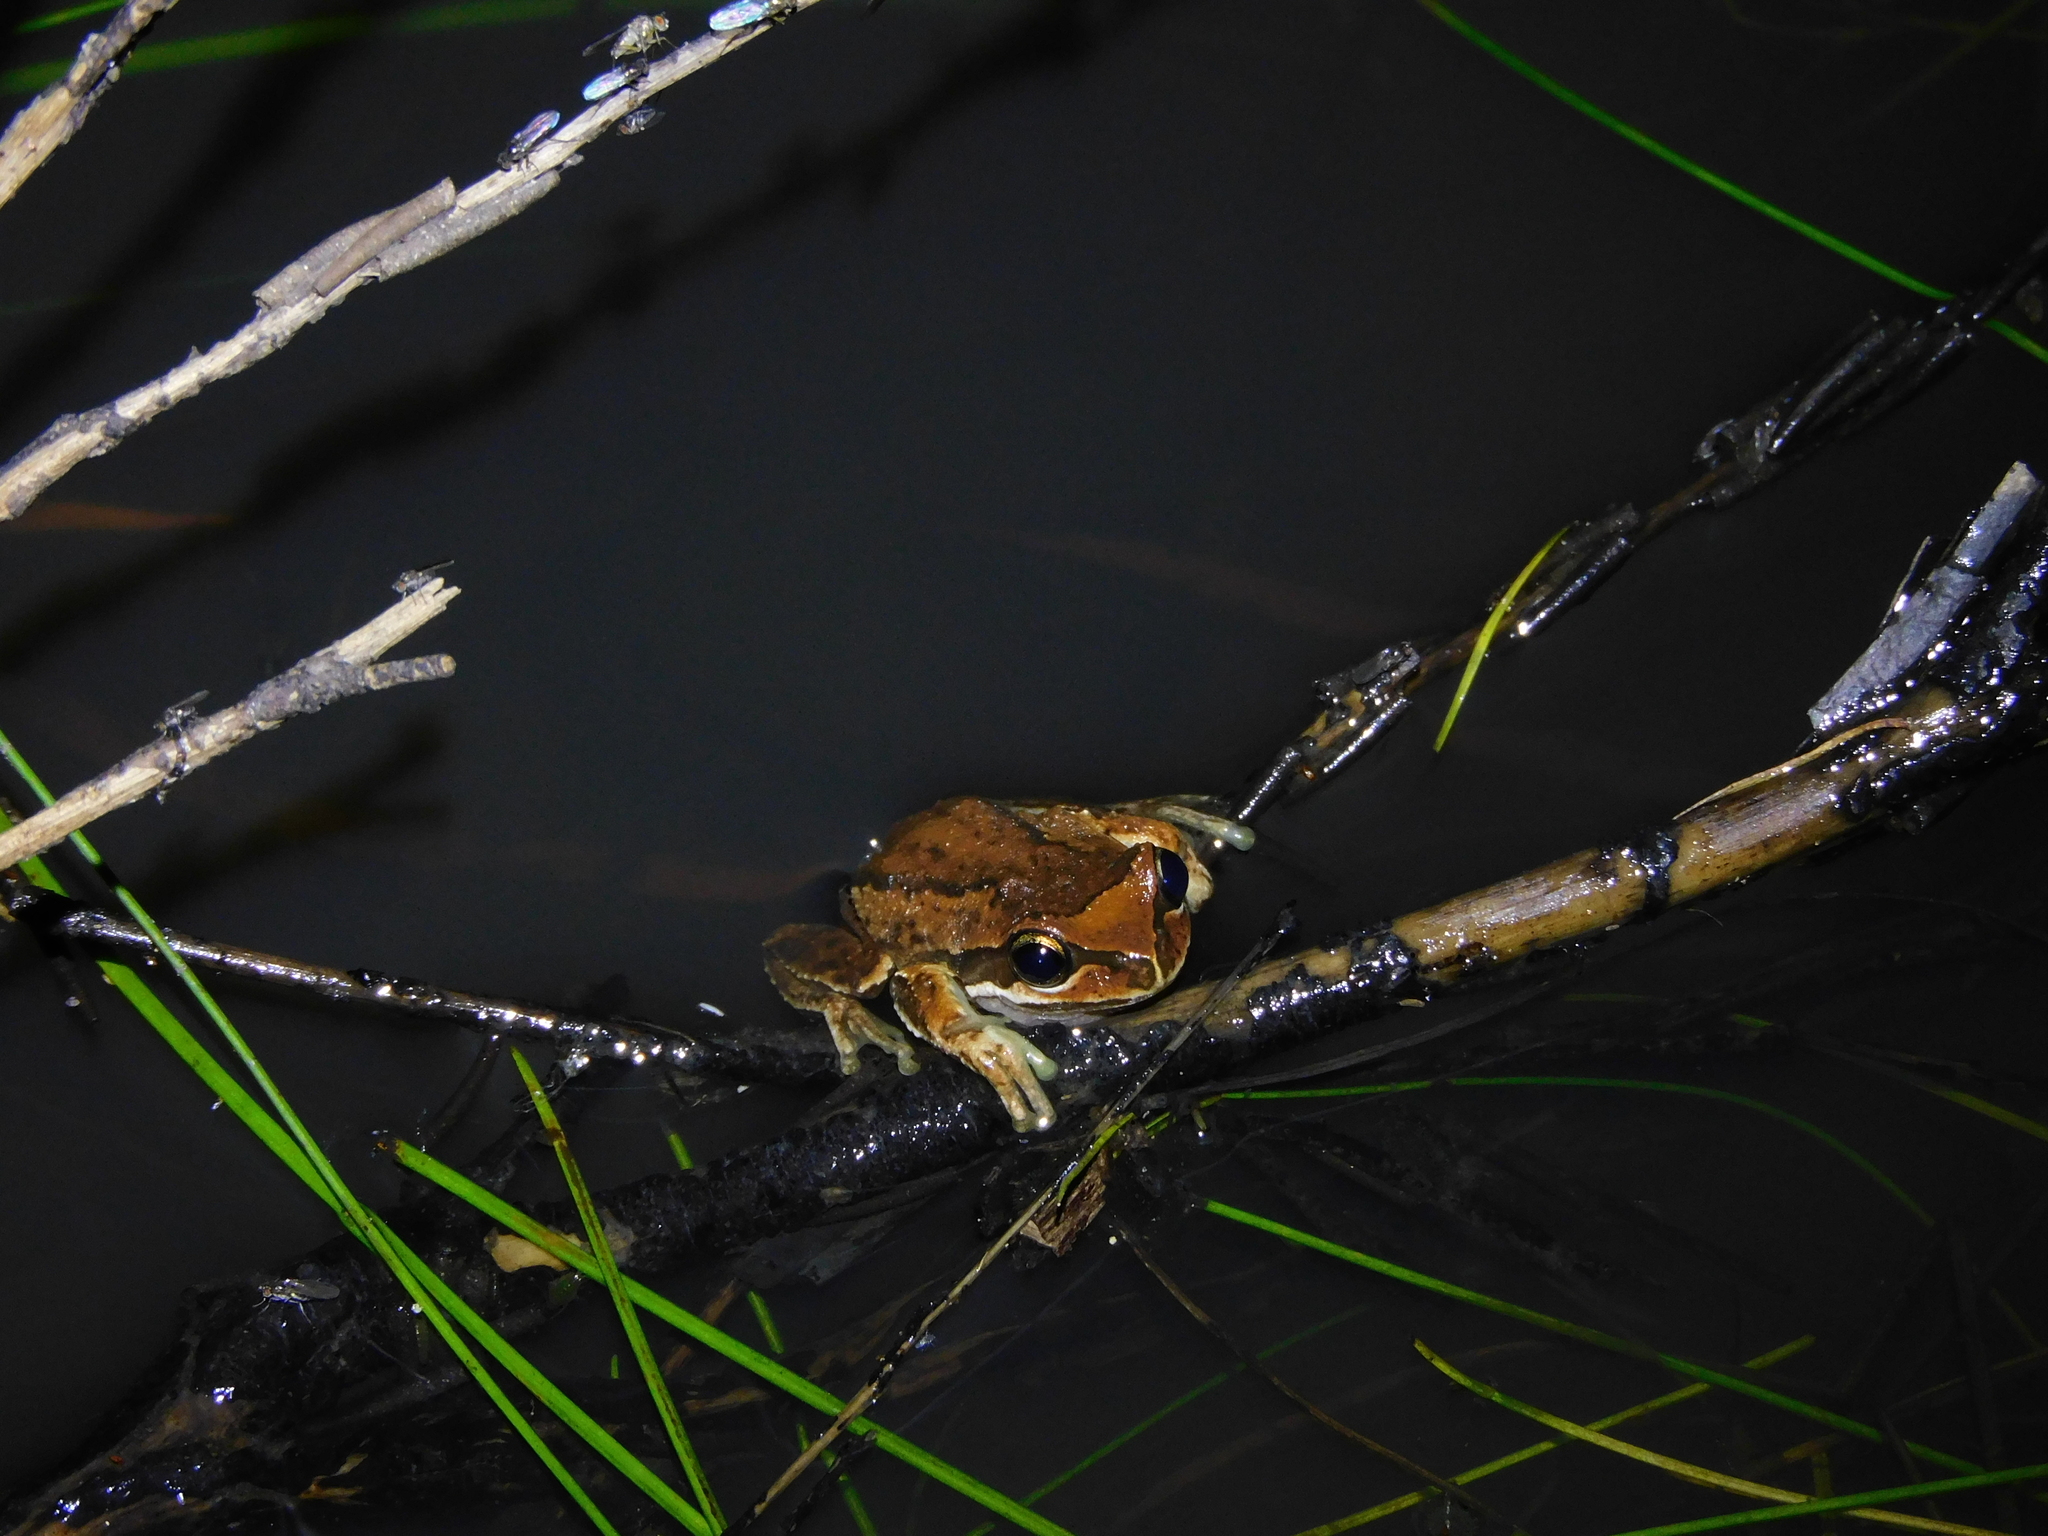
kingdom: Animalia
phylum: Chordata
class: Amphibia
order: Anura
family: Pelodryadidae
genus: Litoria
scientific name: Litoria ewingii
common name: Southern brown tree frog
